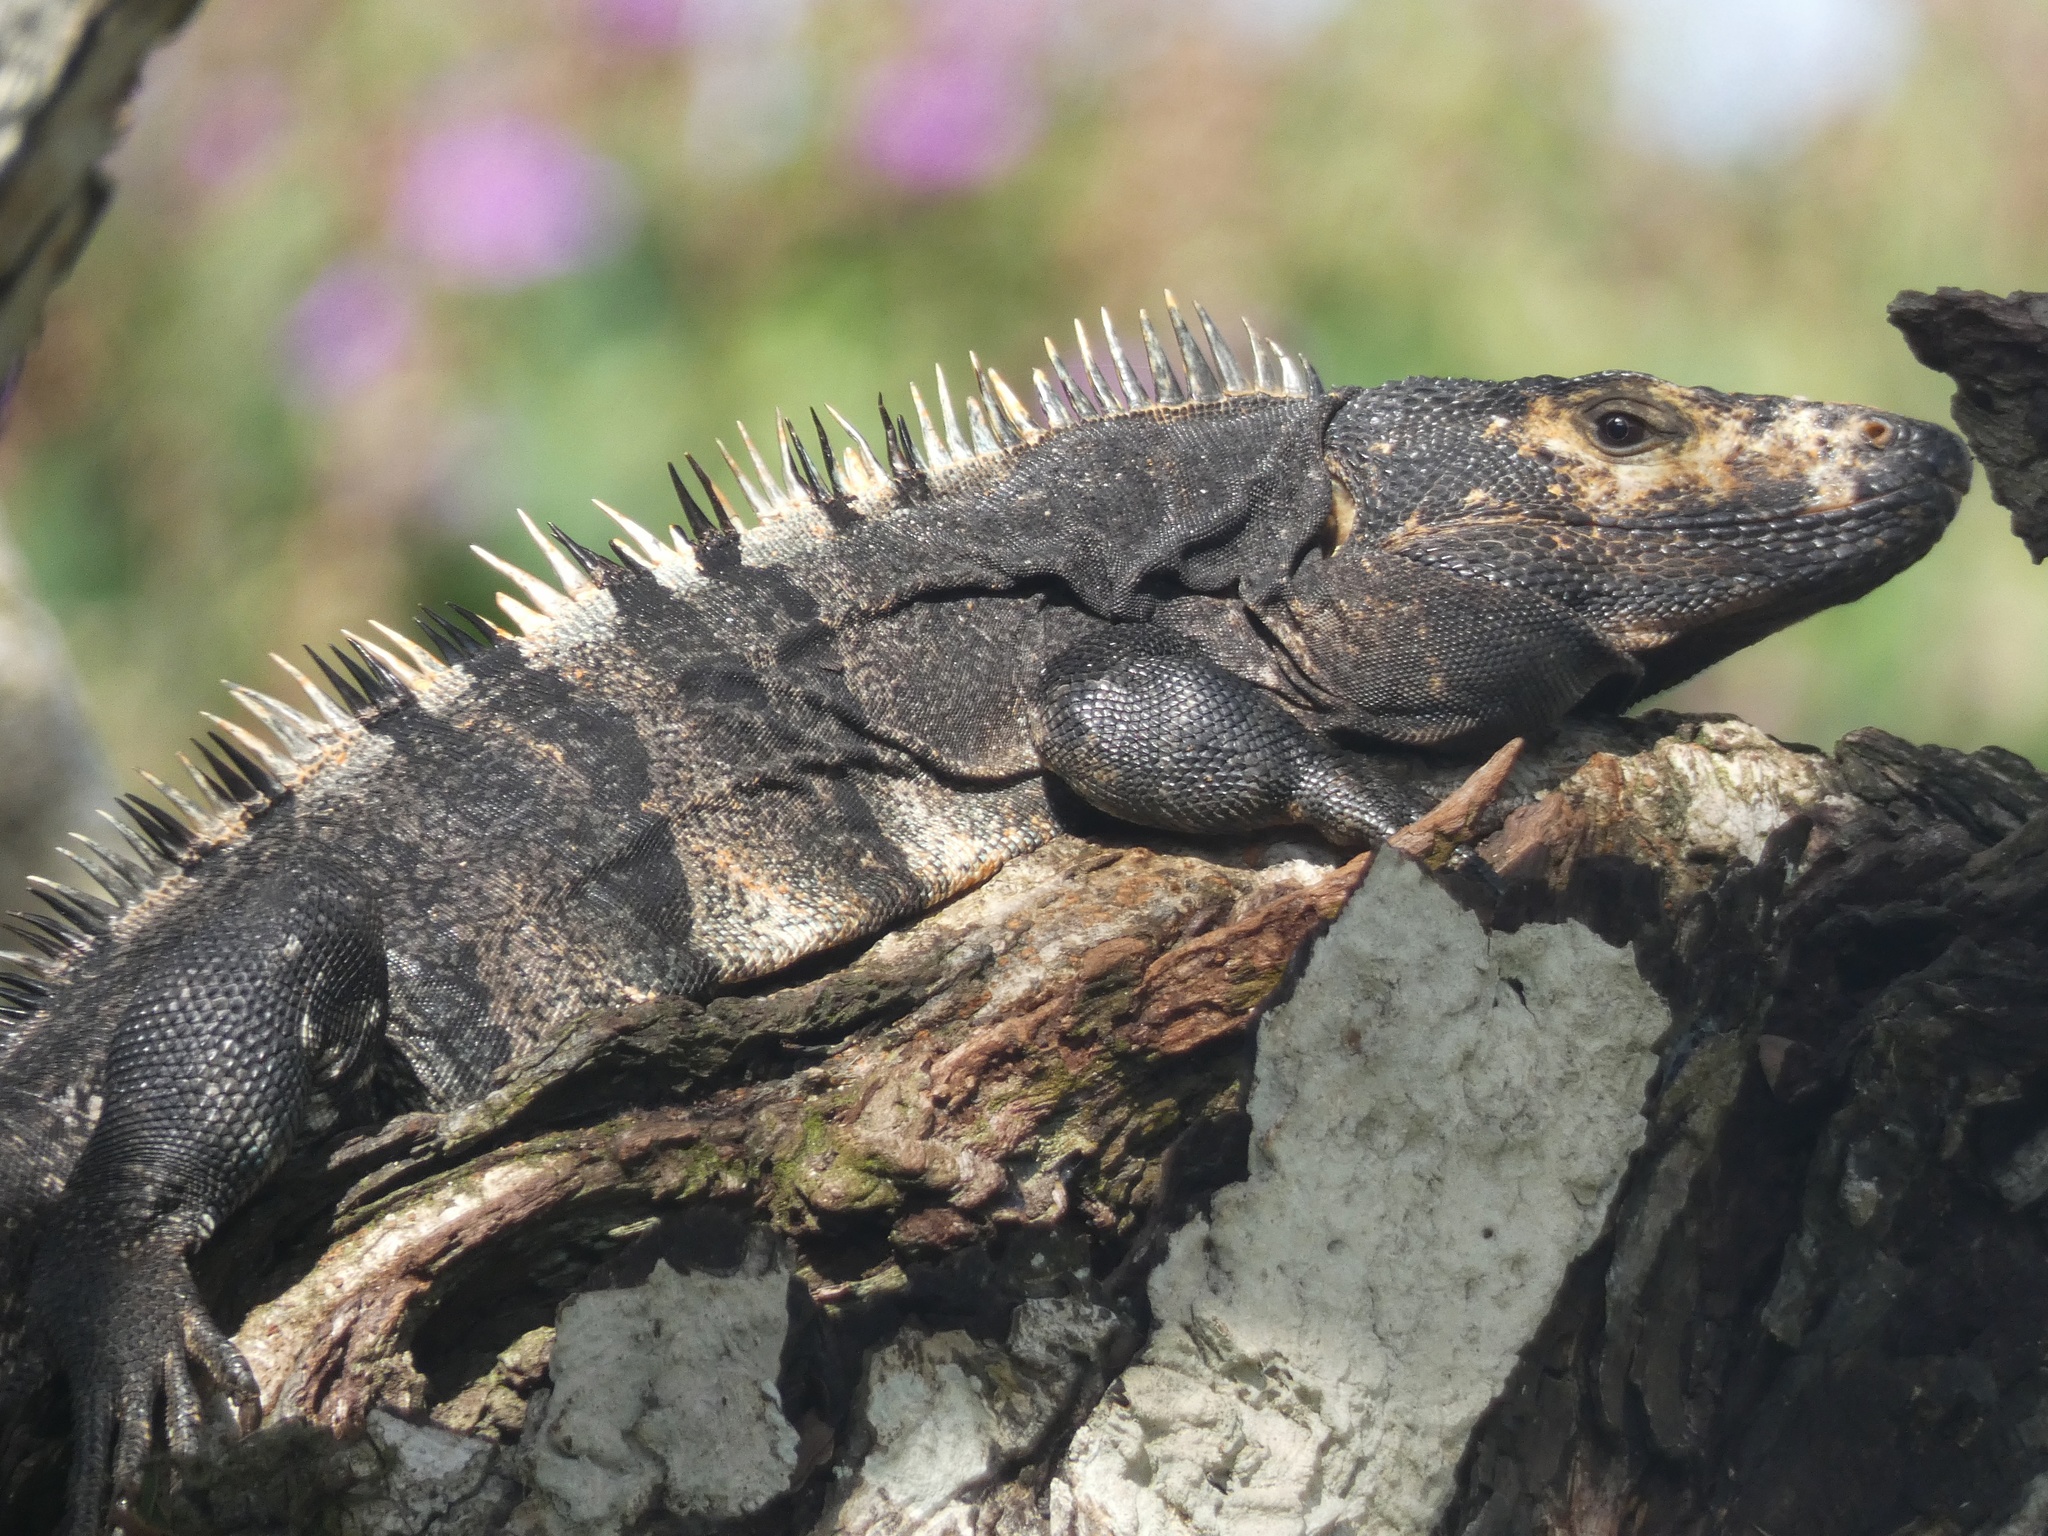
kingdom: Animalia
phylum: Chordata
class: Squamata
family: Iguanidae
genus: Ctenosaura
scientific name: Ctenosaura similis
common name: Black spiny-tailed iguana
